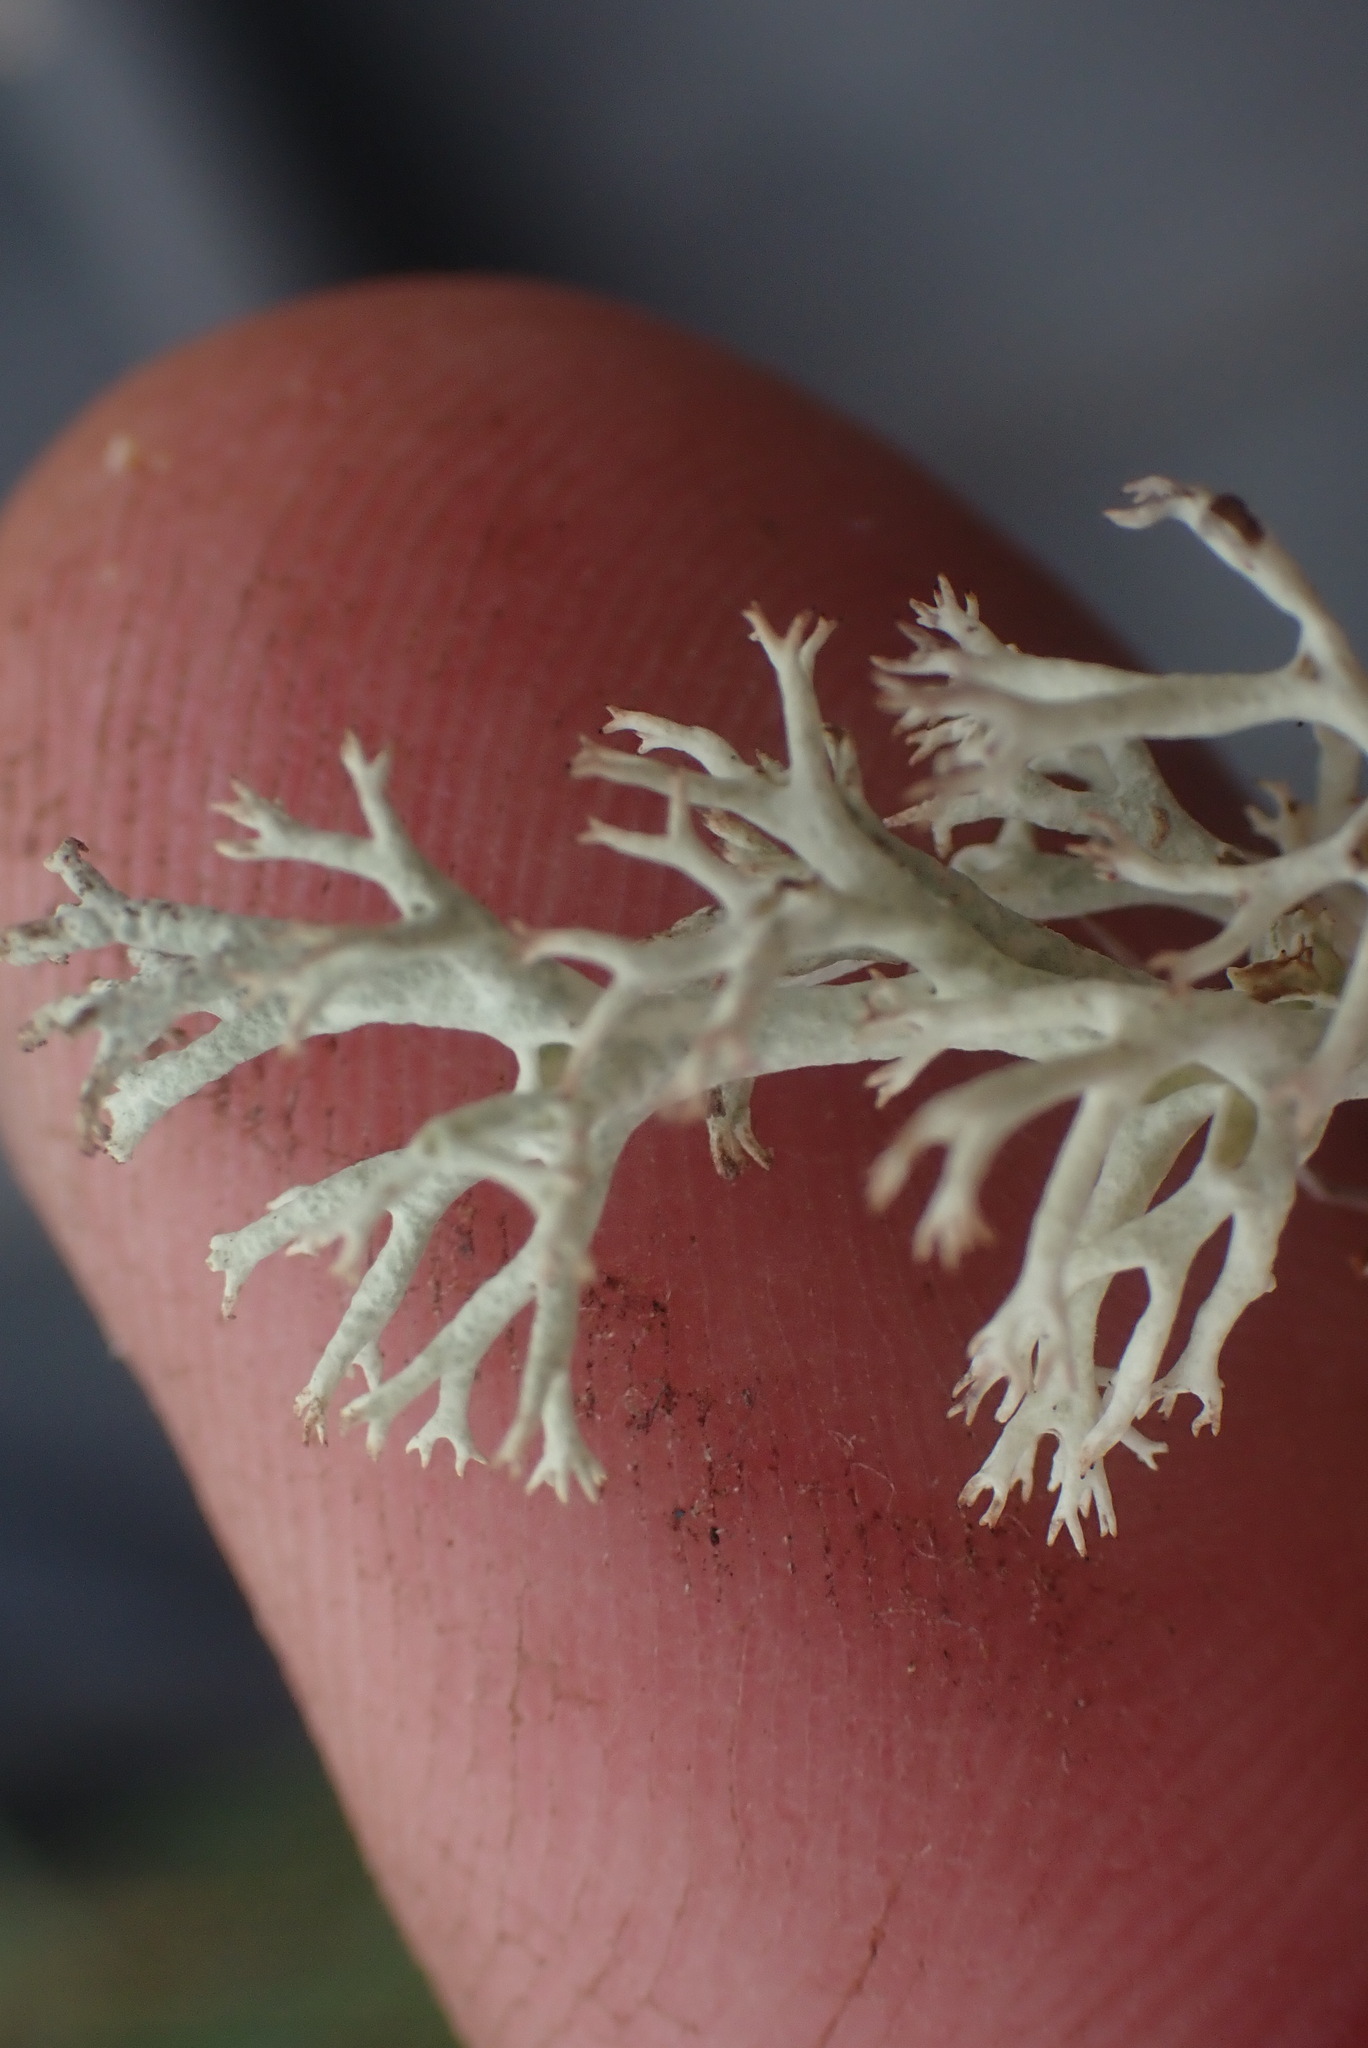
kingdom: Fungi
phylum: Ascomycota
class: Lecanoromycetes
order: Lecanorales
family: Cladoniaceae
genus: Cladonia
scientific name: Cladonia rangiferina
